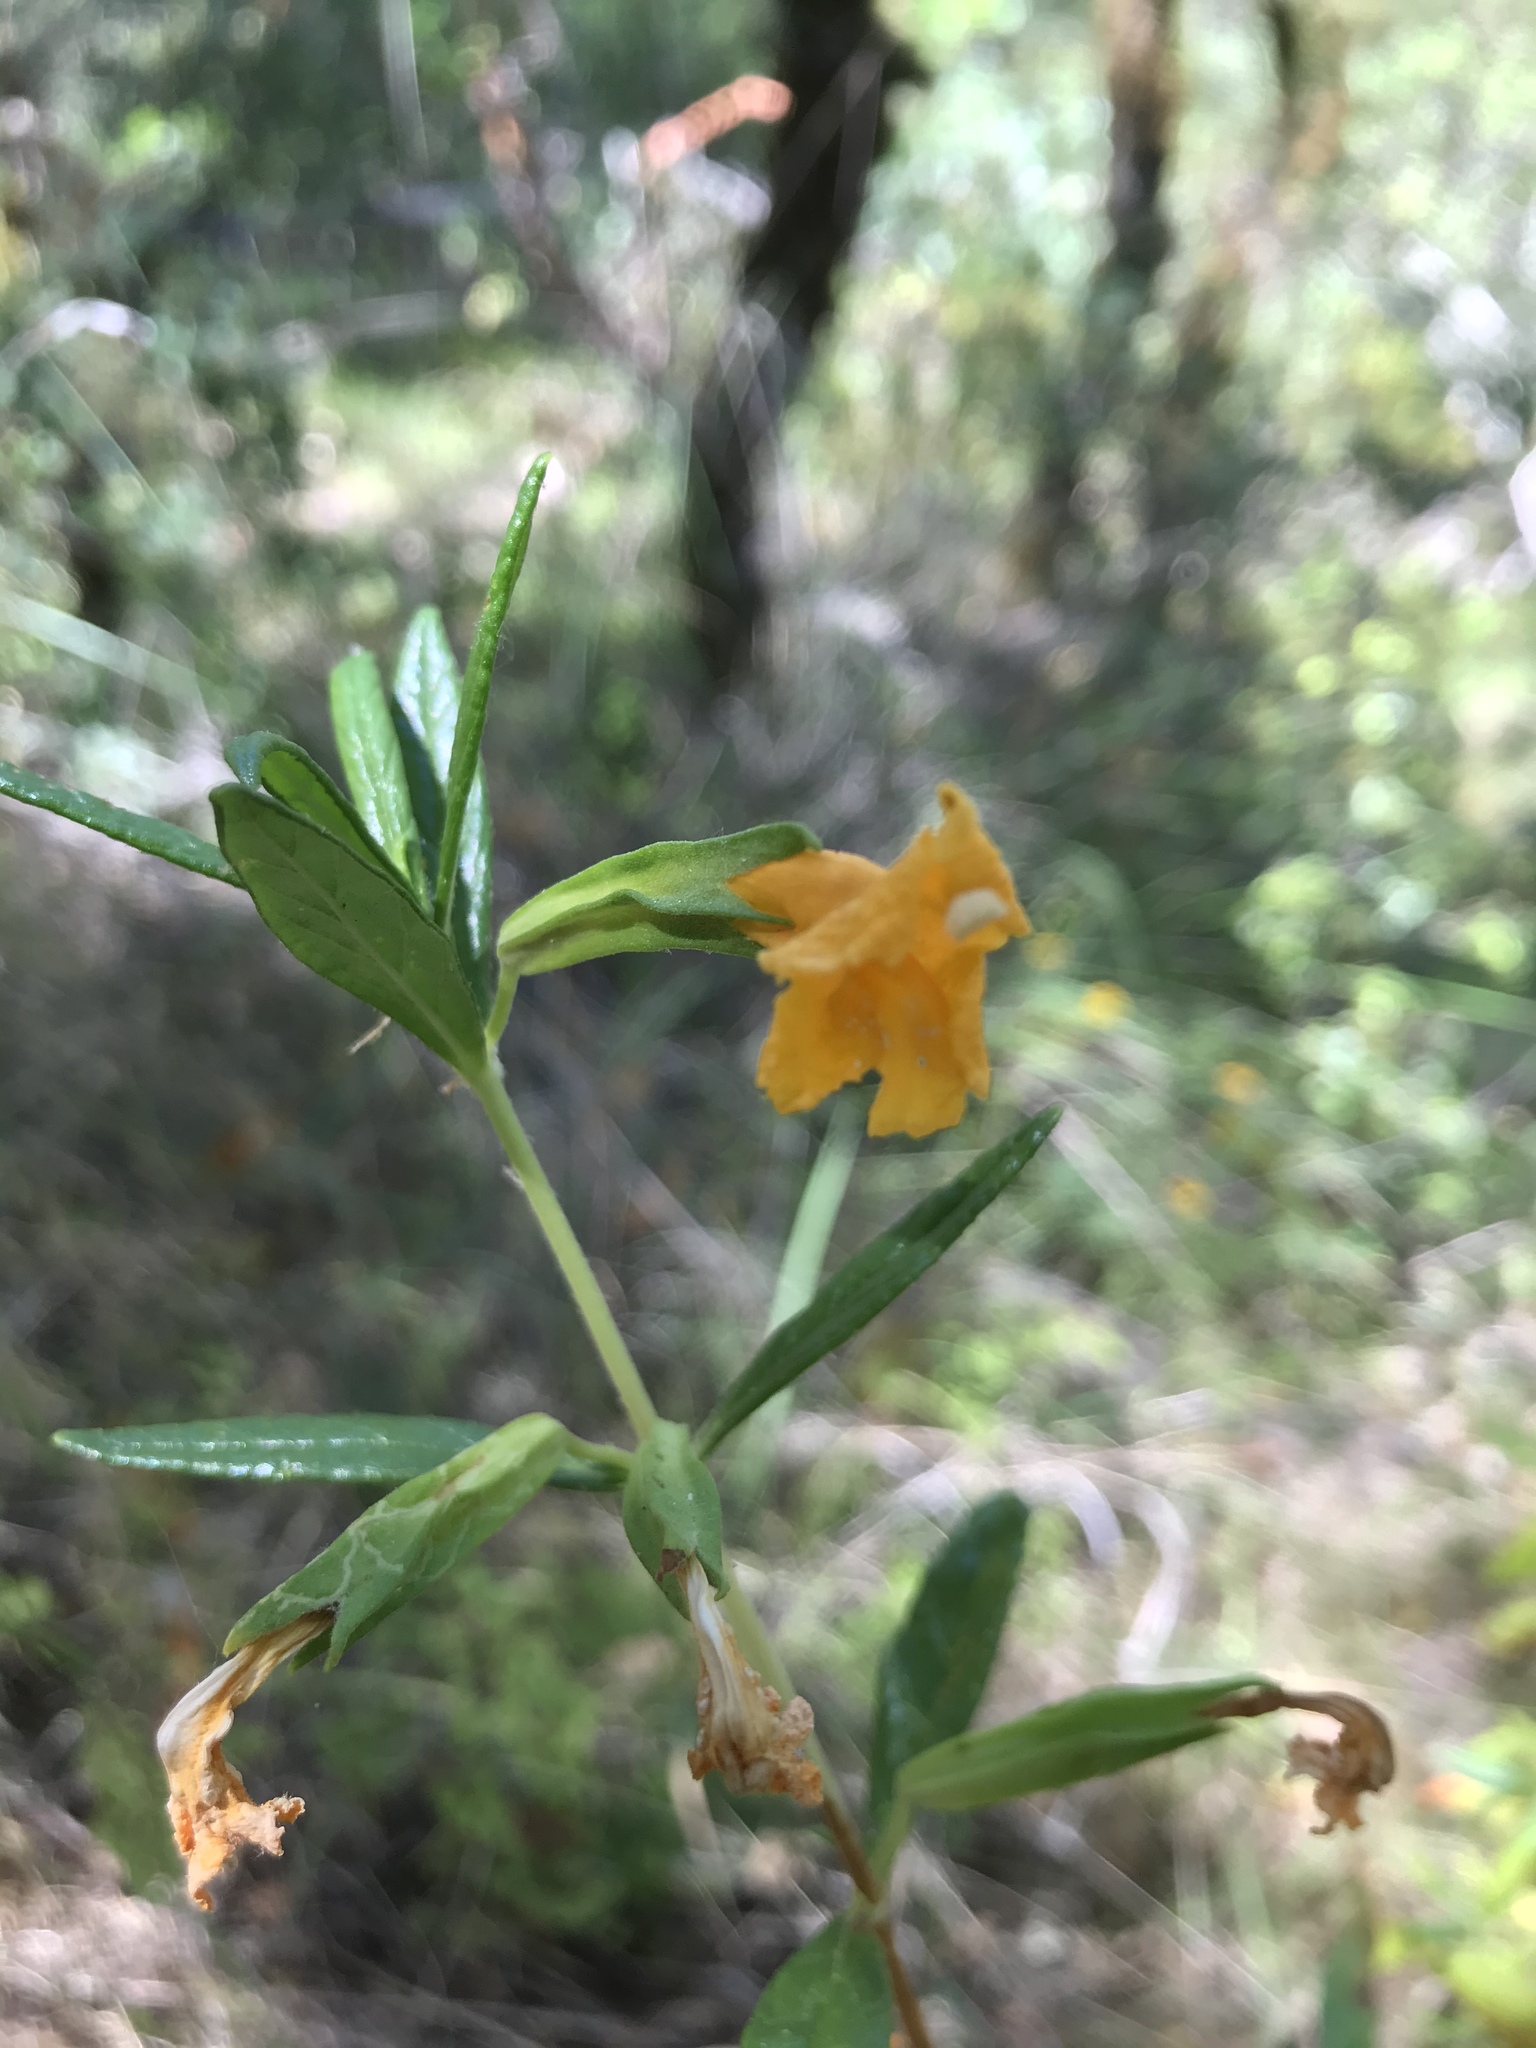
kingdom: Plantae
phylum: Tracheophyta
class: Magnoliopsida
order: Lamiales
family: Phrymaceae
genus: Diplacus
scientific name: Diplacus aurantiacus
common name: Bush monkey-flower
